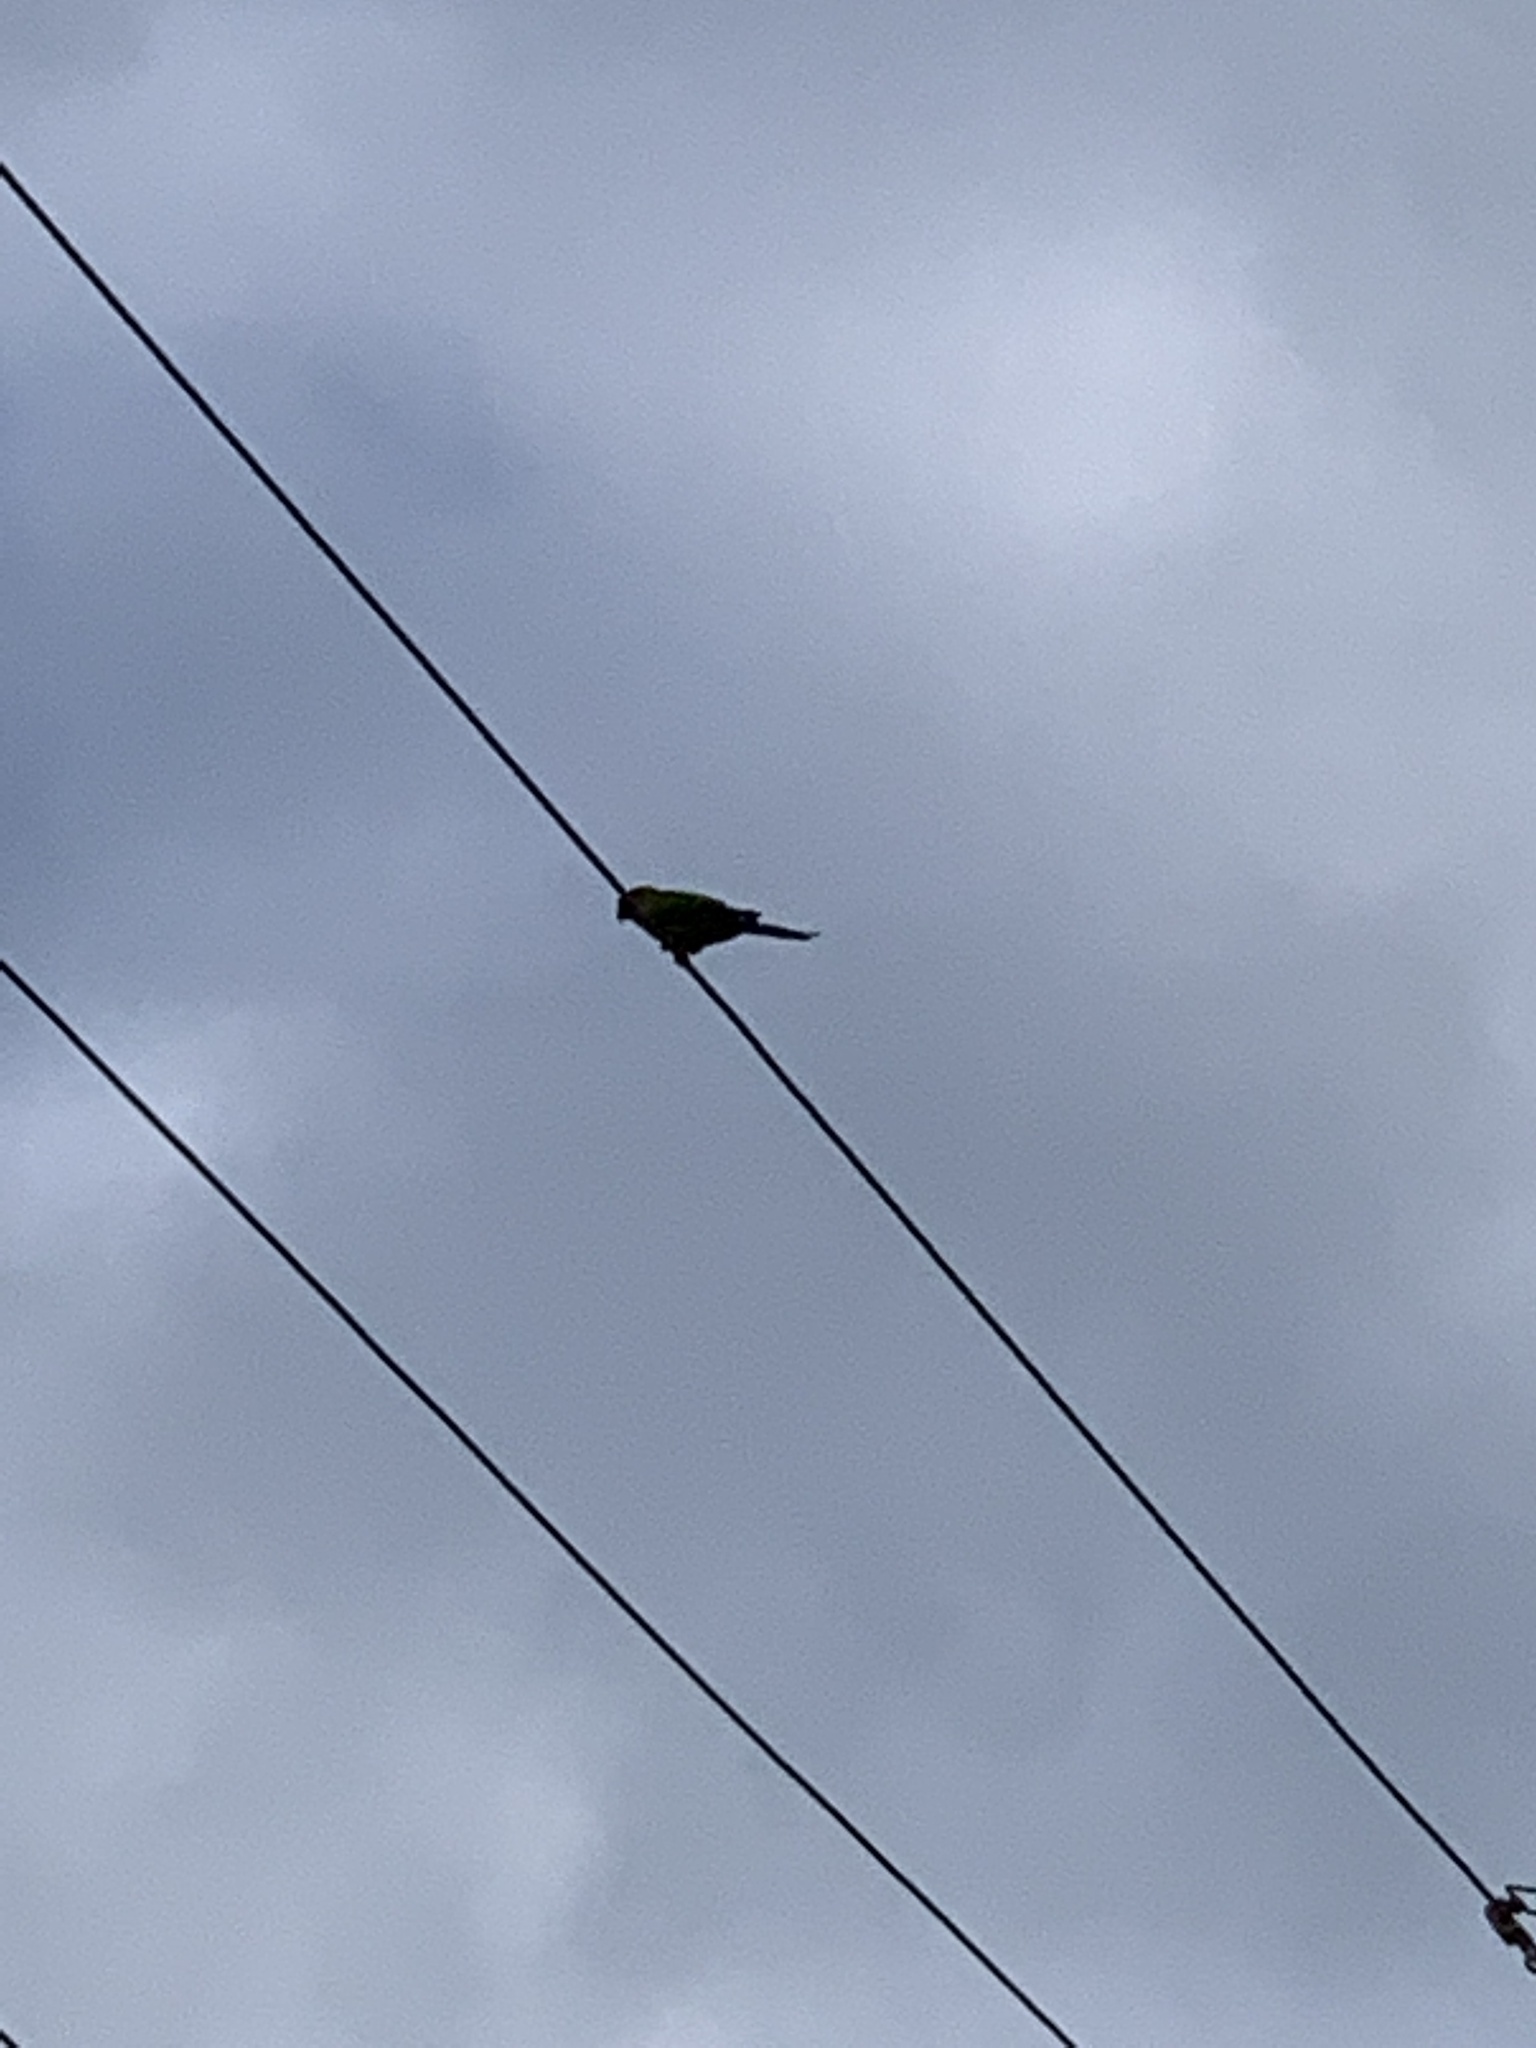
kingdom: Animalia
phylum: Chordata
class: Aves
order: Psittaciformes
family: Psittacidae
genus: Nandayus
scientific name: Nandayus nenday
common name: Nanday parakeet
